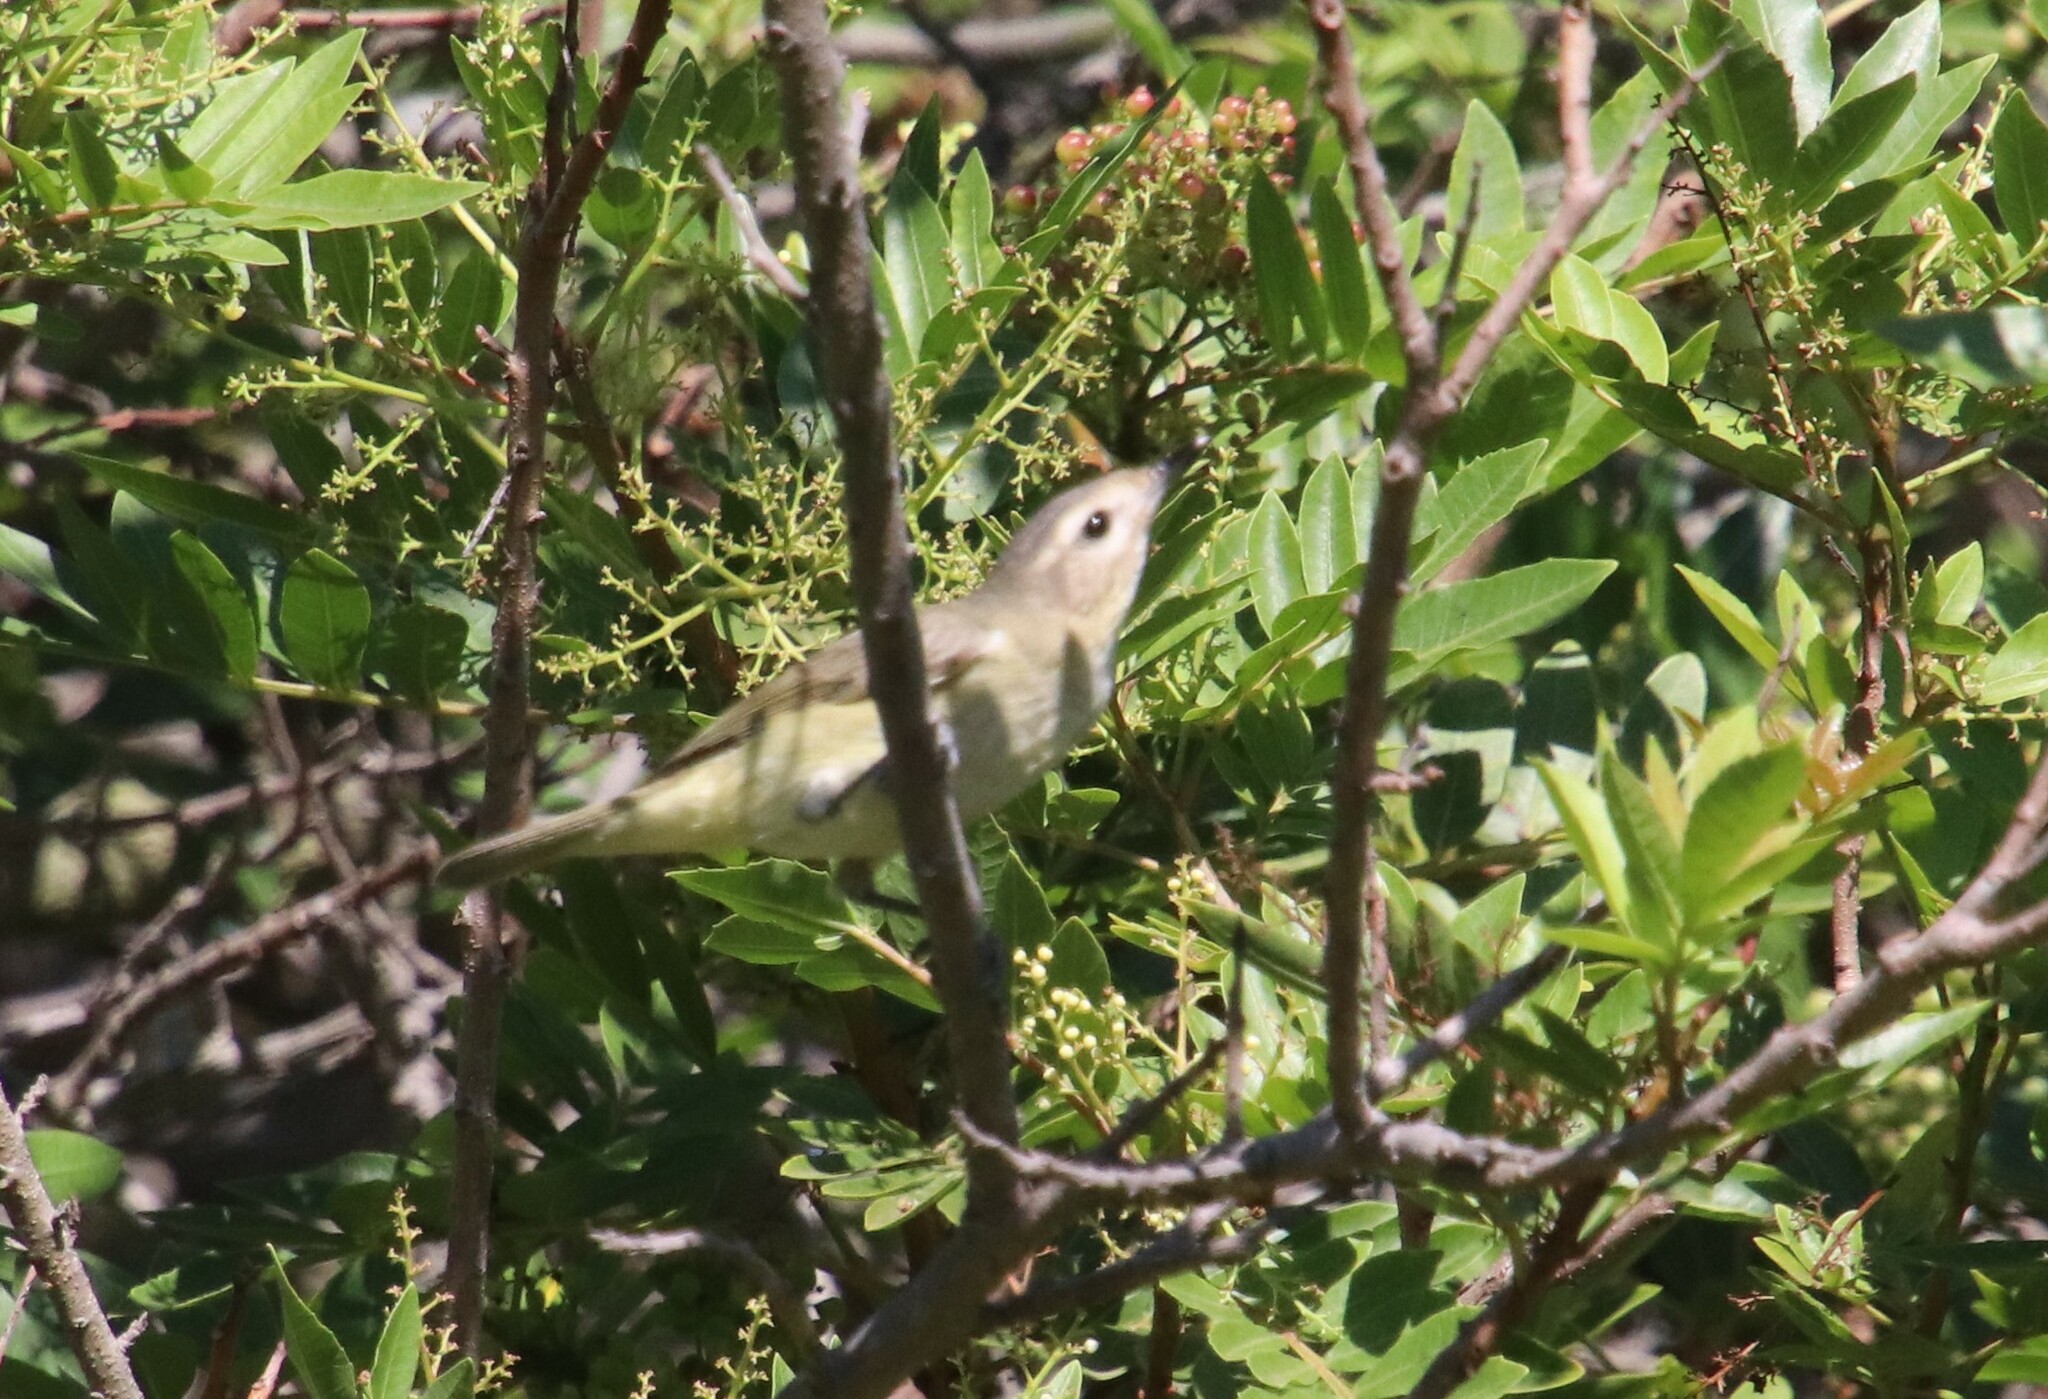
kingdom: Animalia
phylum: Chordata
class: Aves
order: Passeriformes
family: Vireonidae
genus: Vireo
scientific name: Vireo gilvus
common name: Warbling vireo
